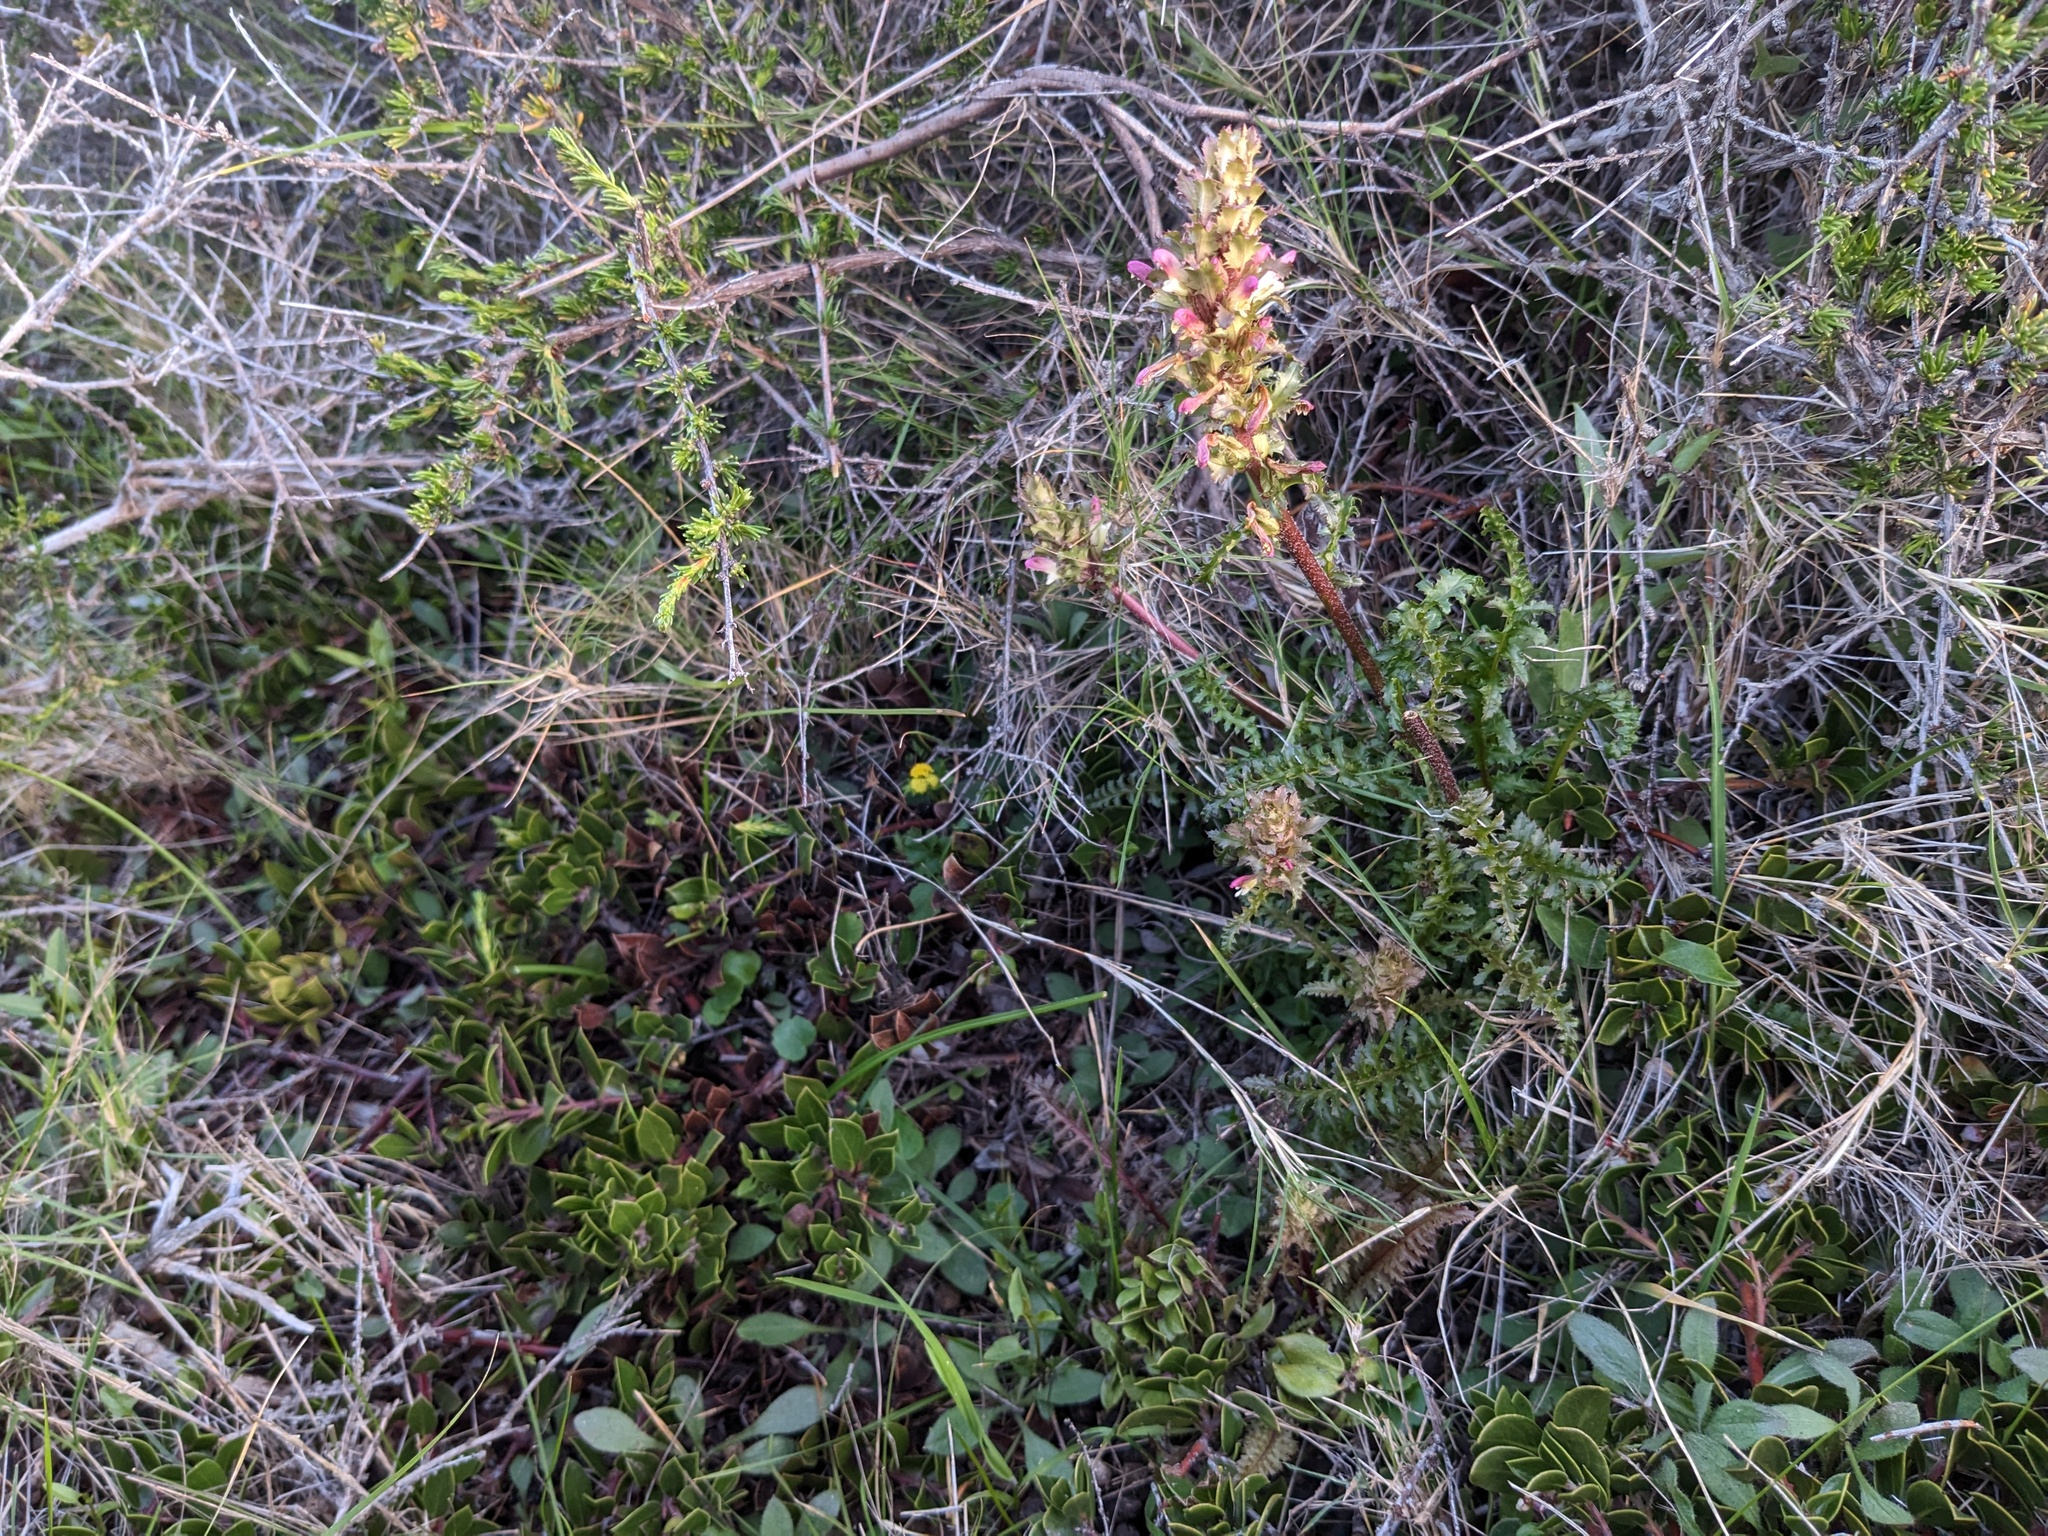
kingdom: Plantae
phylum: Tracheophyta
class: Magnoliopsida
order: Lamiales
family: Orobanchaceae
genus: Pedicularis
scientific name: Pedicularis rigginsiae
